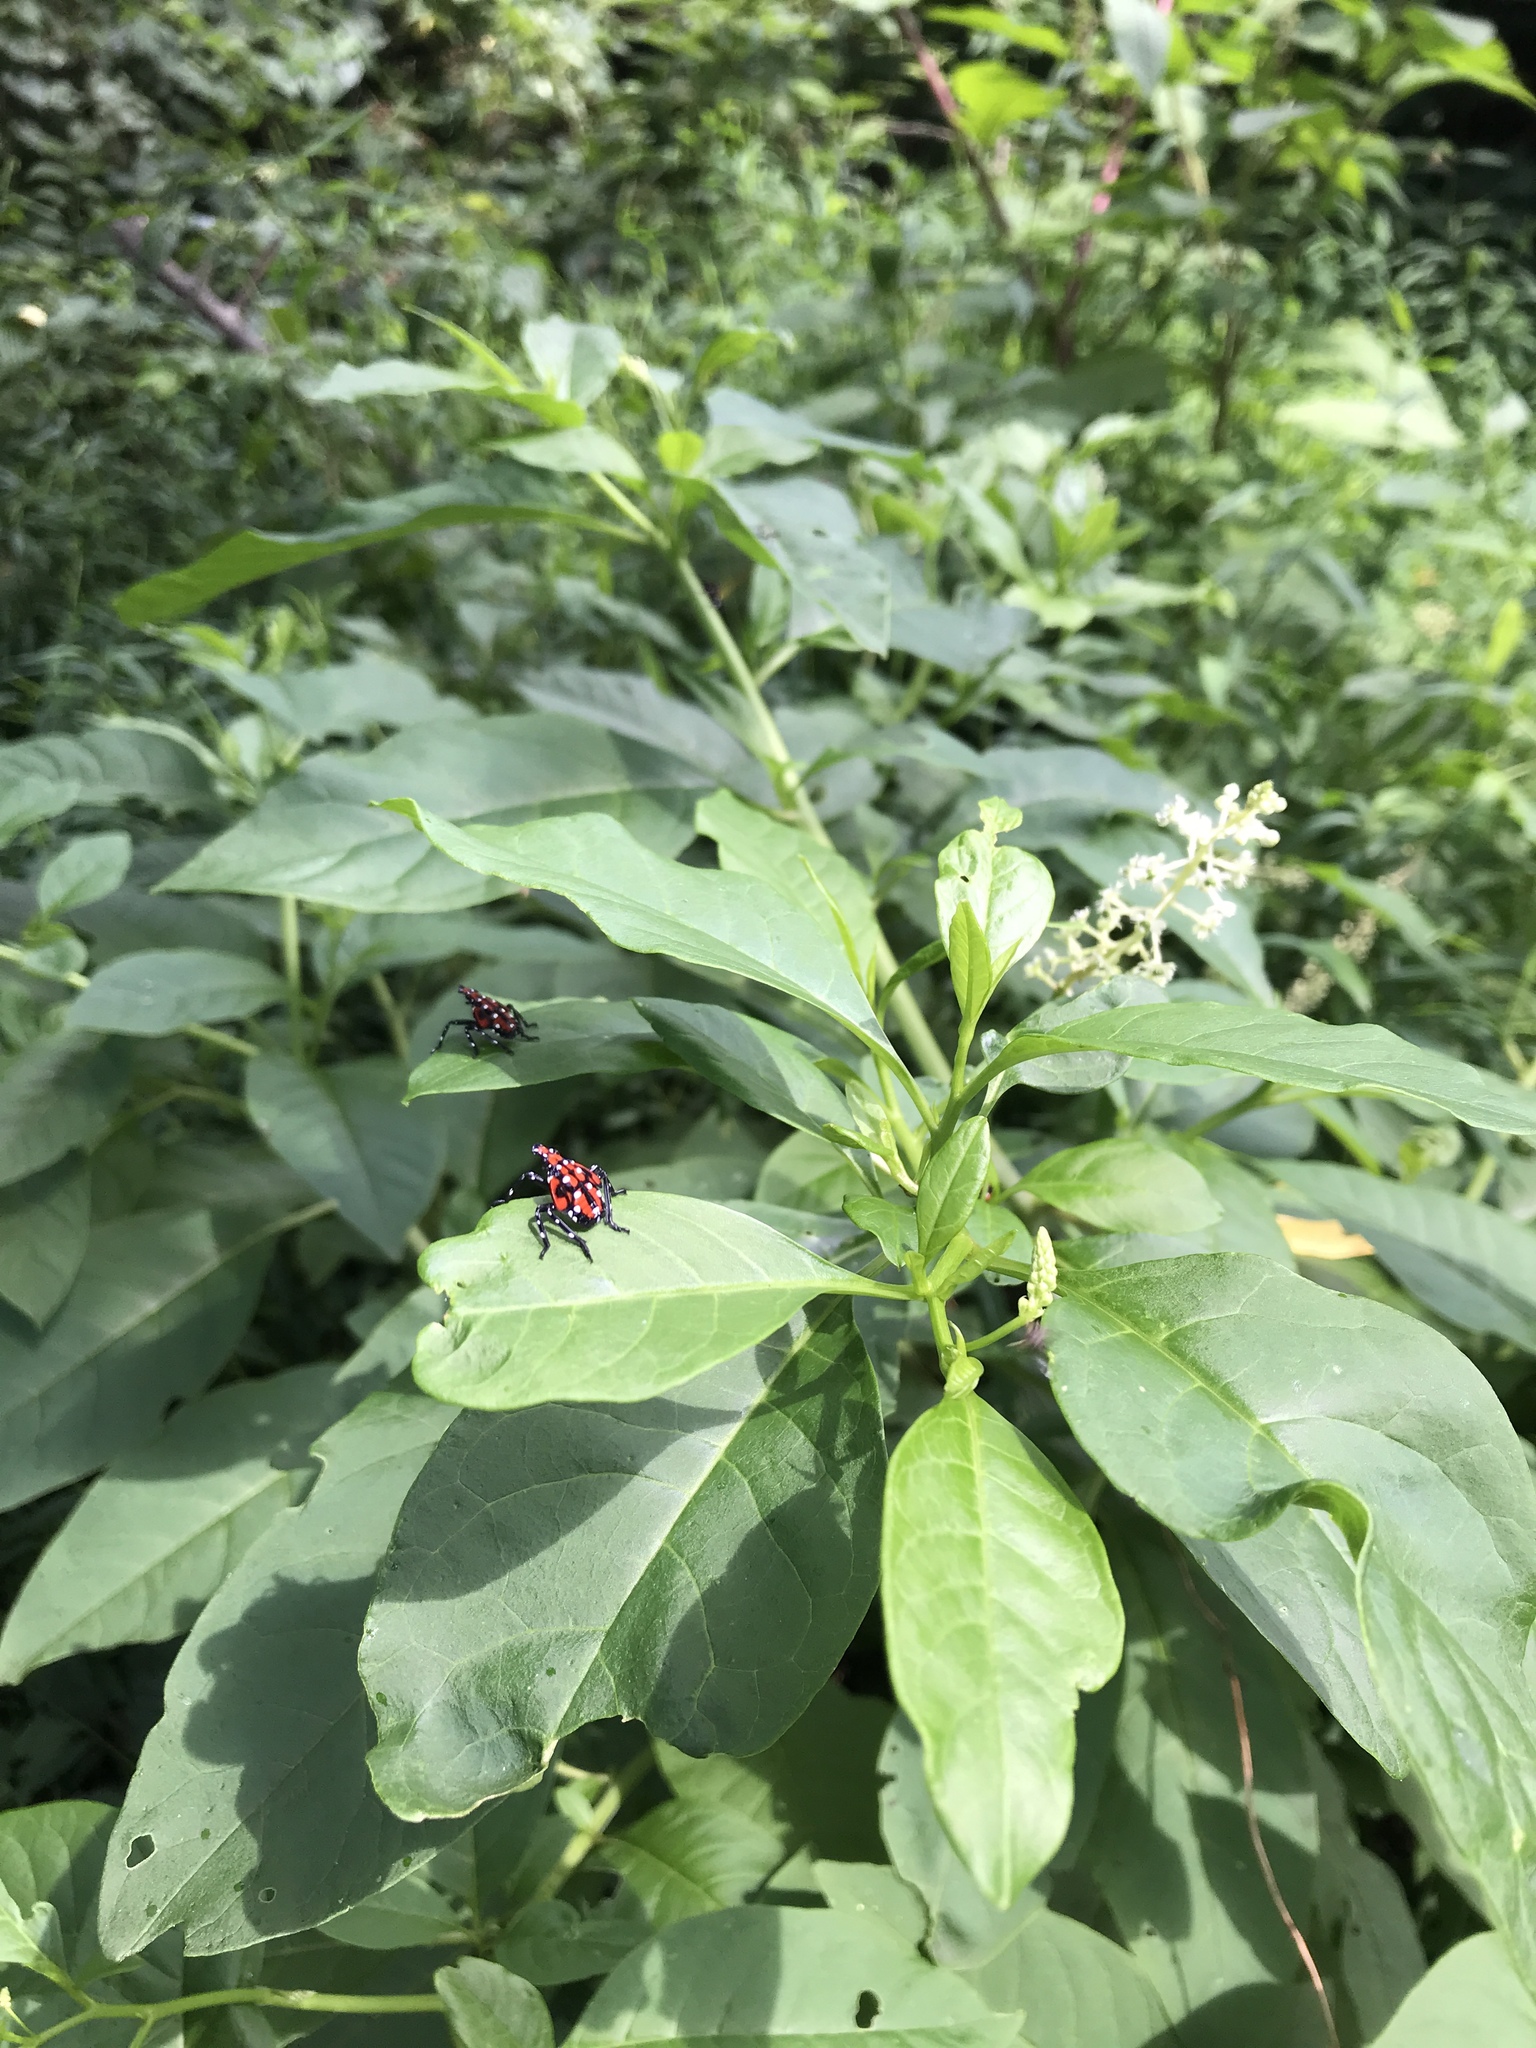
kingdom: Animalia
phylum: Arthropoda
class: Insecta
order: Hemiptera
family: Fulgoridae
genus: Lycorma
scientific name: Lycorma delicatula
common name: Spotted lanternfly
